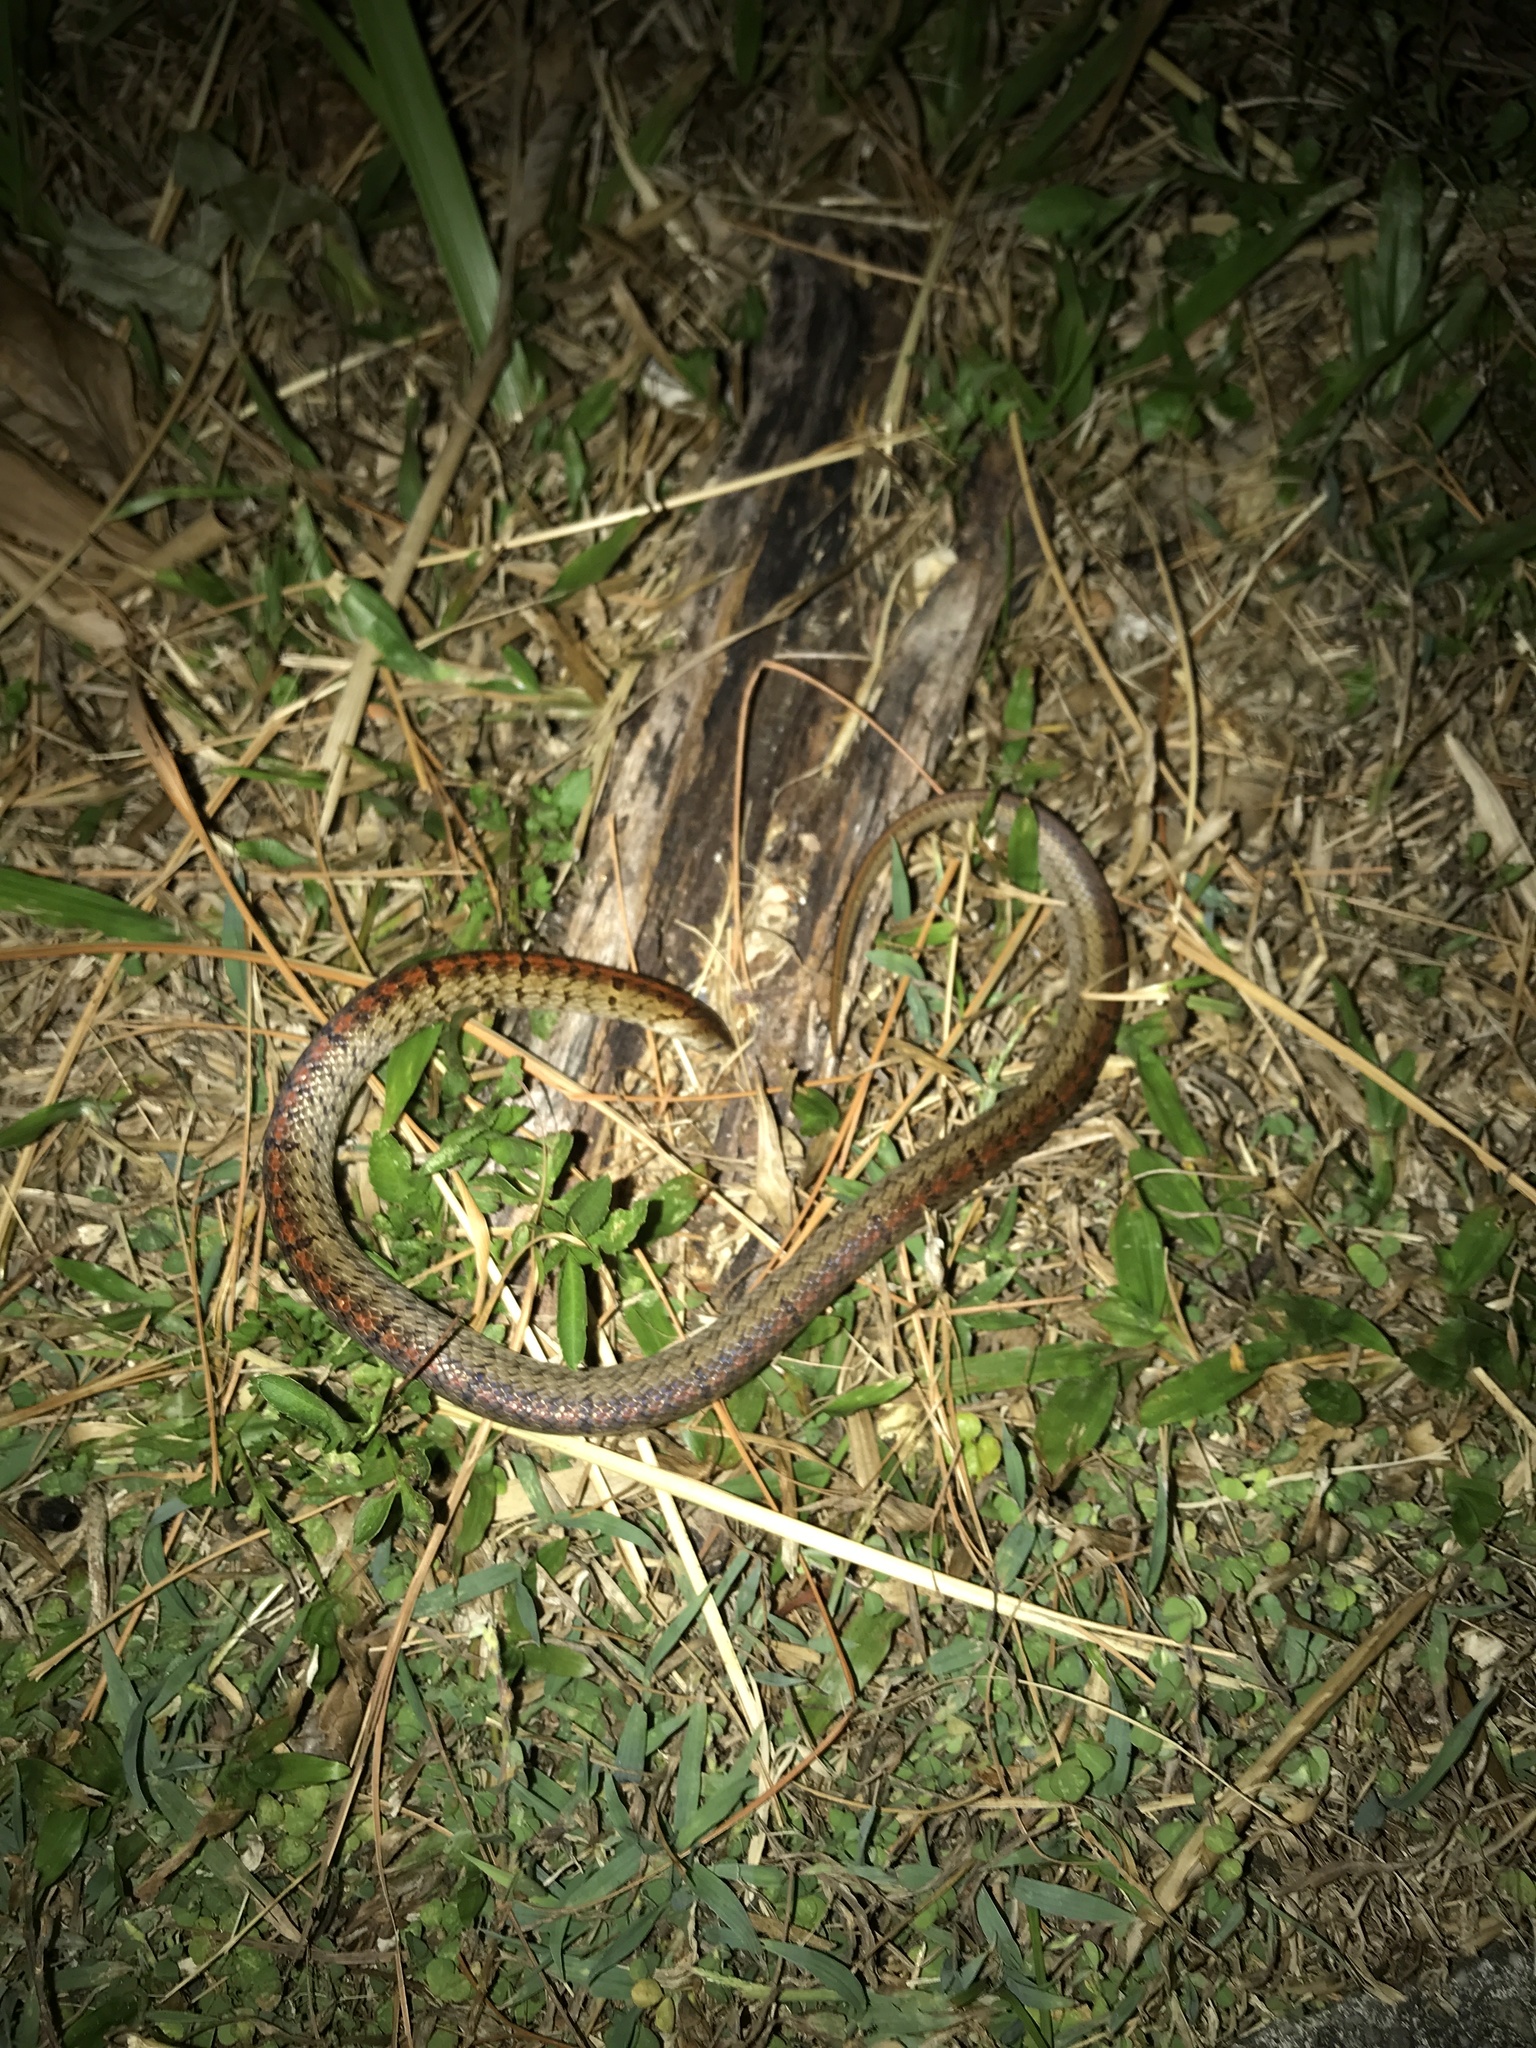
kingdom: Animalia
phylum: Chordata
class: Squamata
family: Colubridae
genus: Oligodon
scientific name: Oligodon formosanus
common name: Formosa kukri snake
